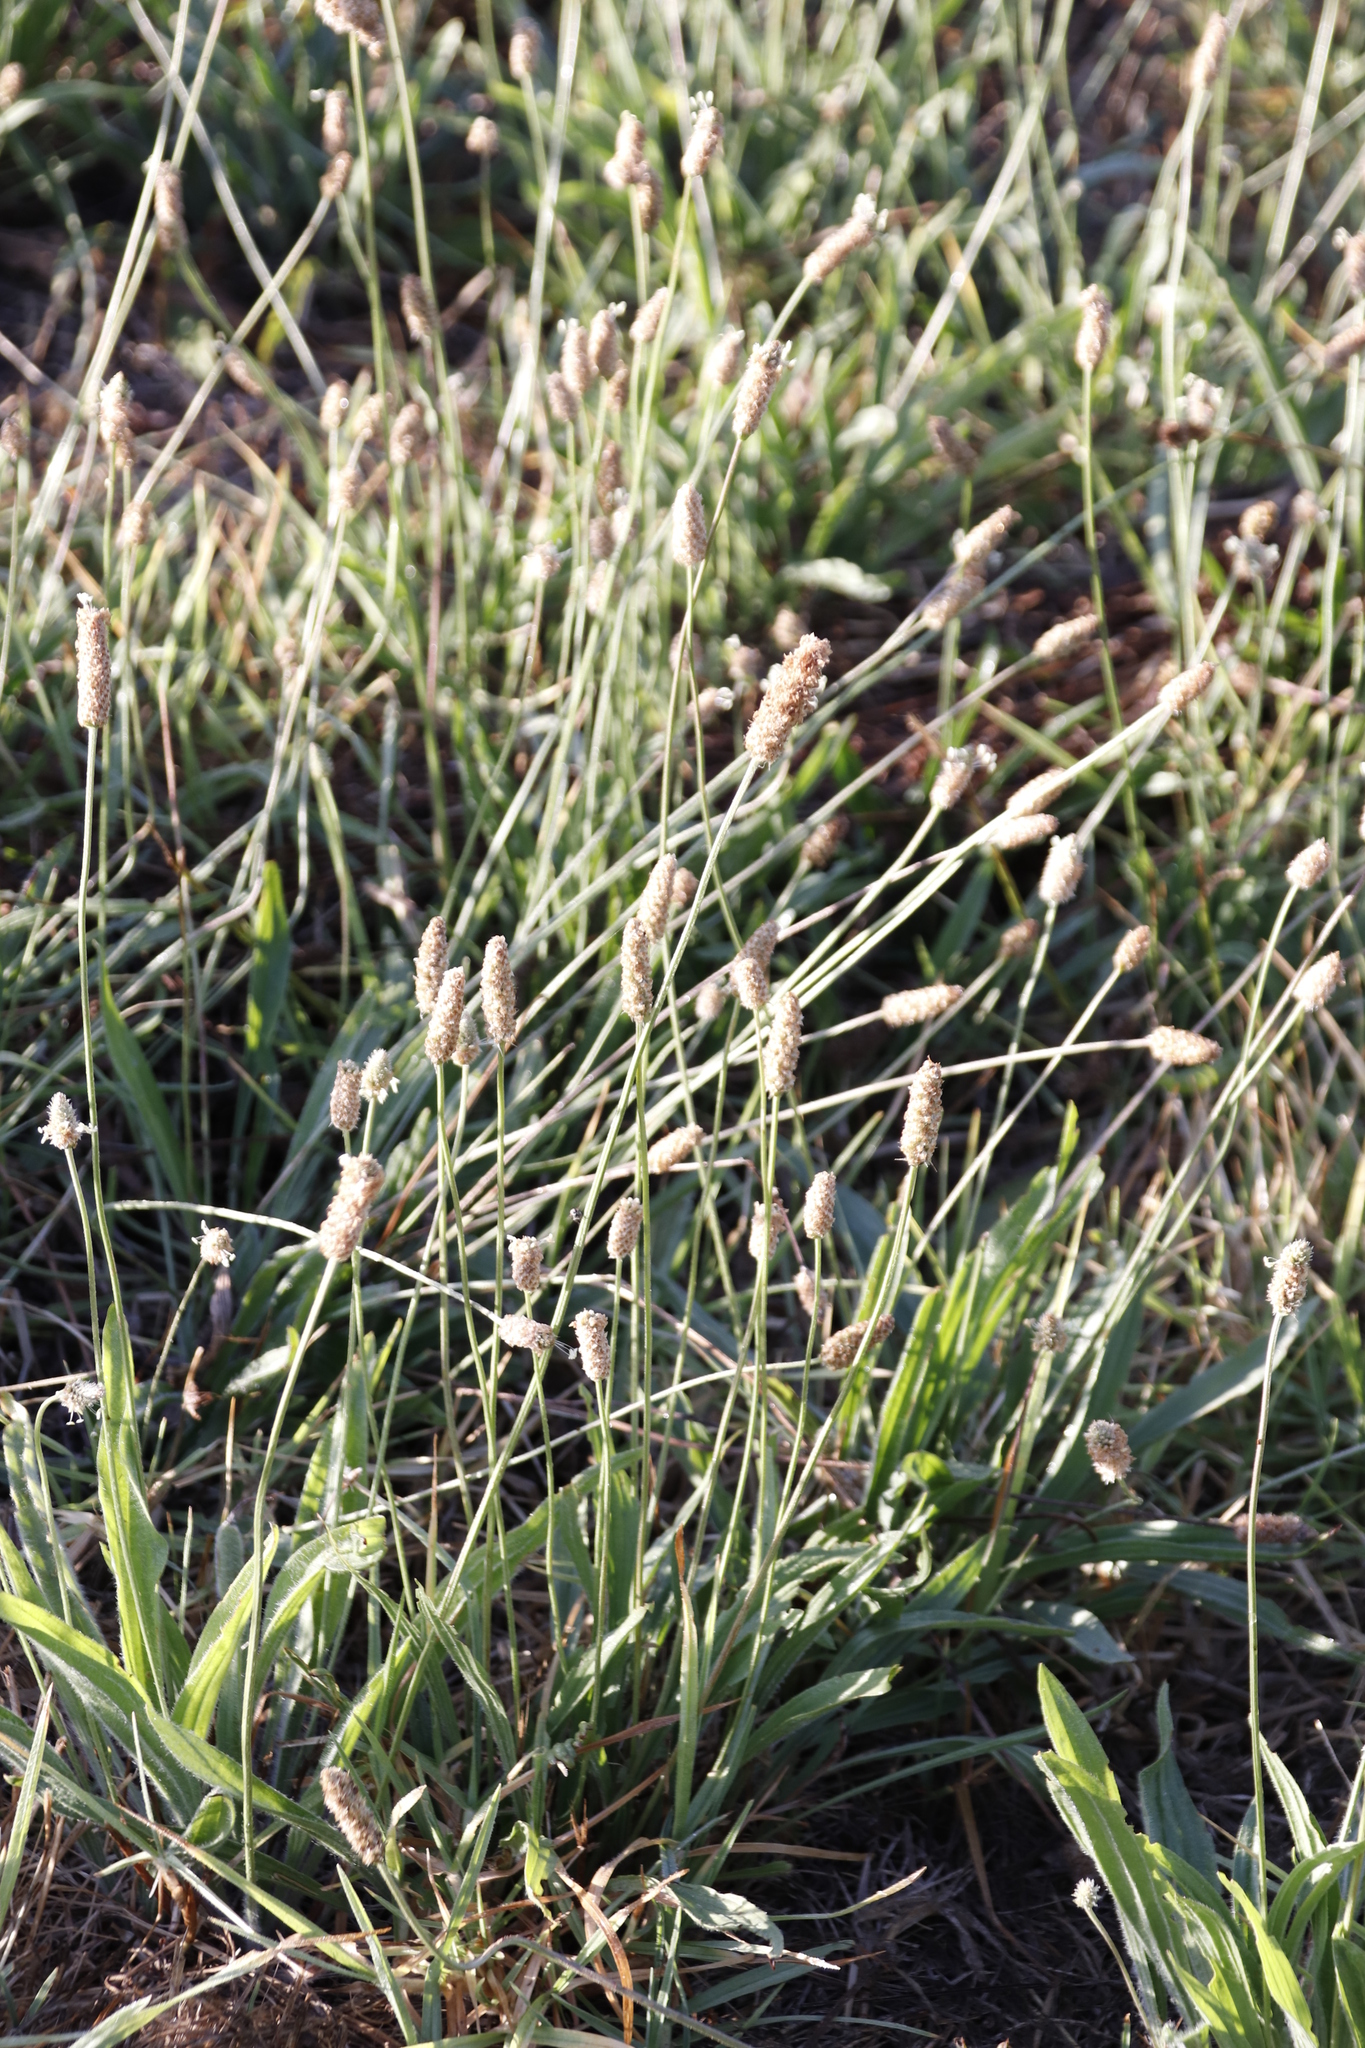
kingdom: Plantae
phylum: Tracheophyta
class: Magnoliopsida
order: Lamiales
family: Plantaginaceae
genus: Plantago
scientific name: Plantago lanceolata
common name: Ribwort plantain
